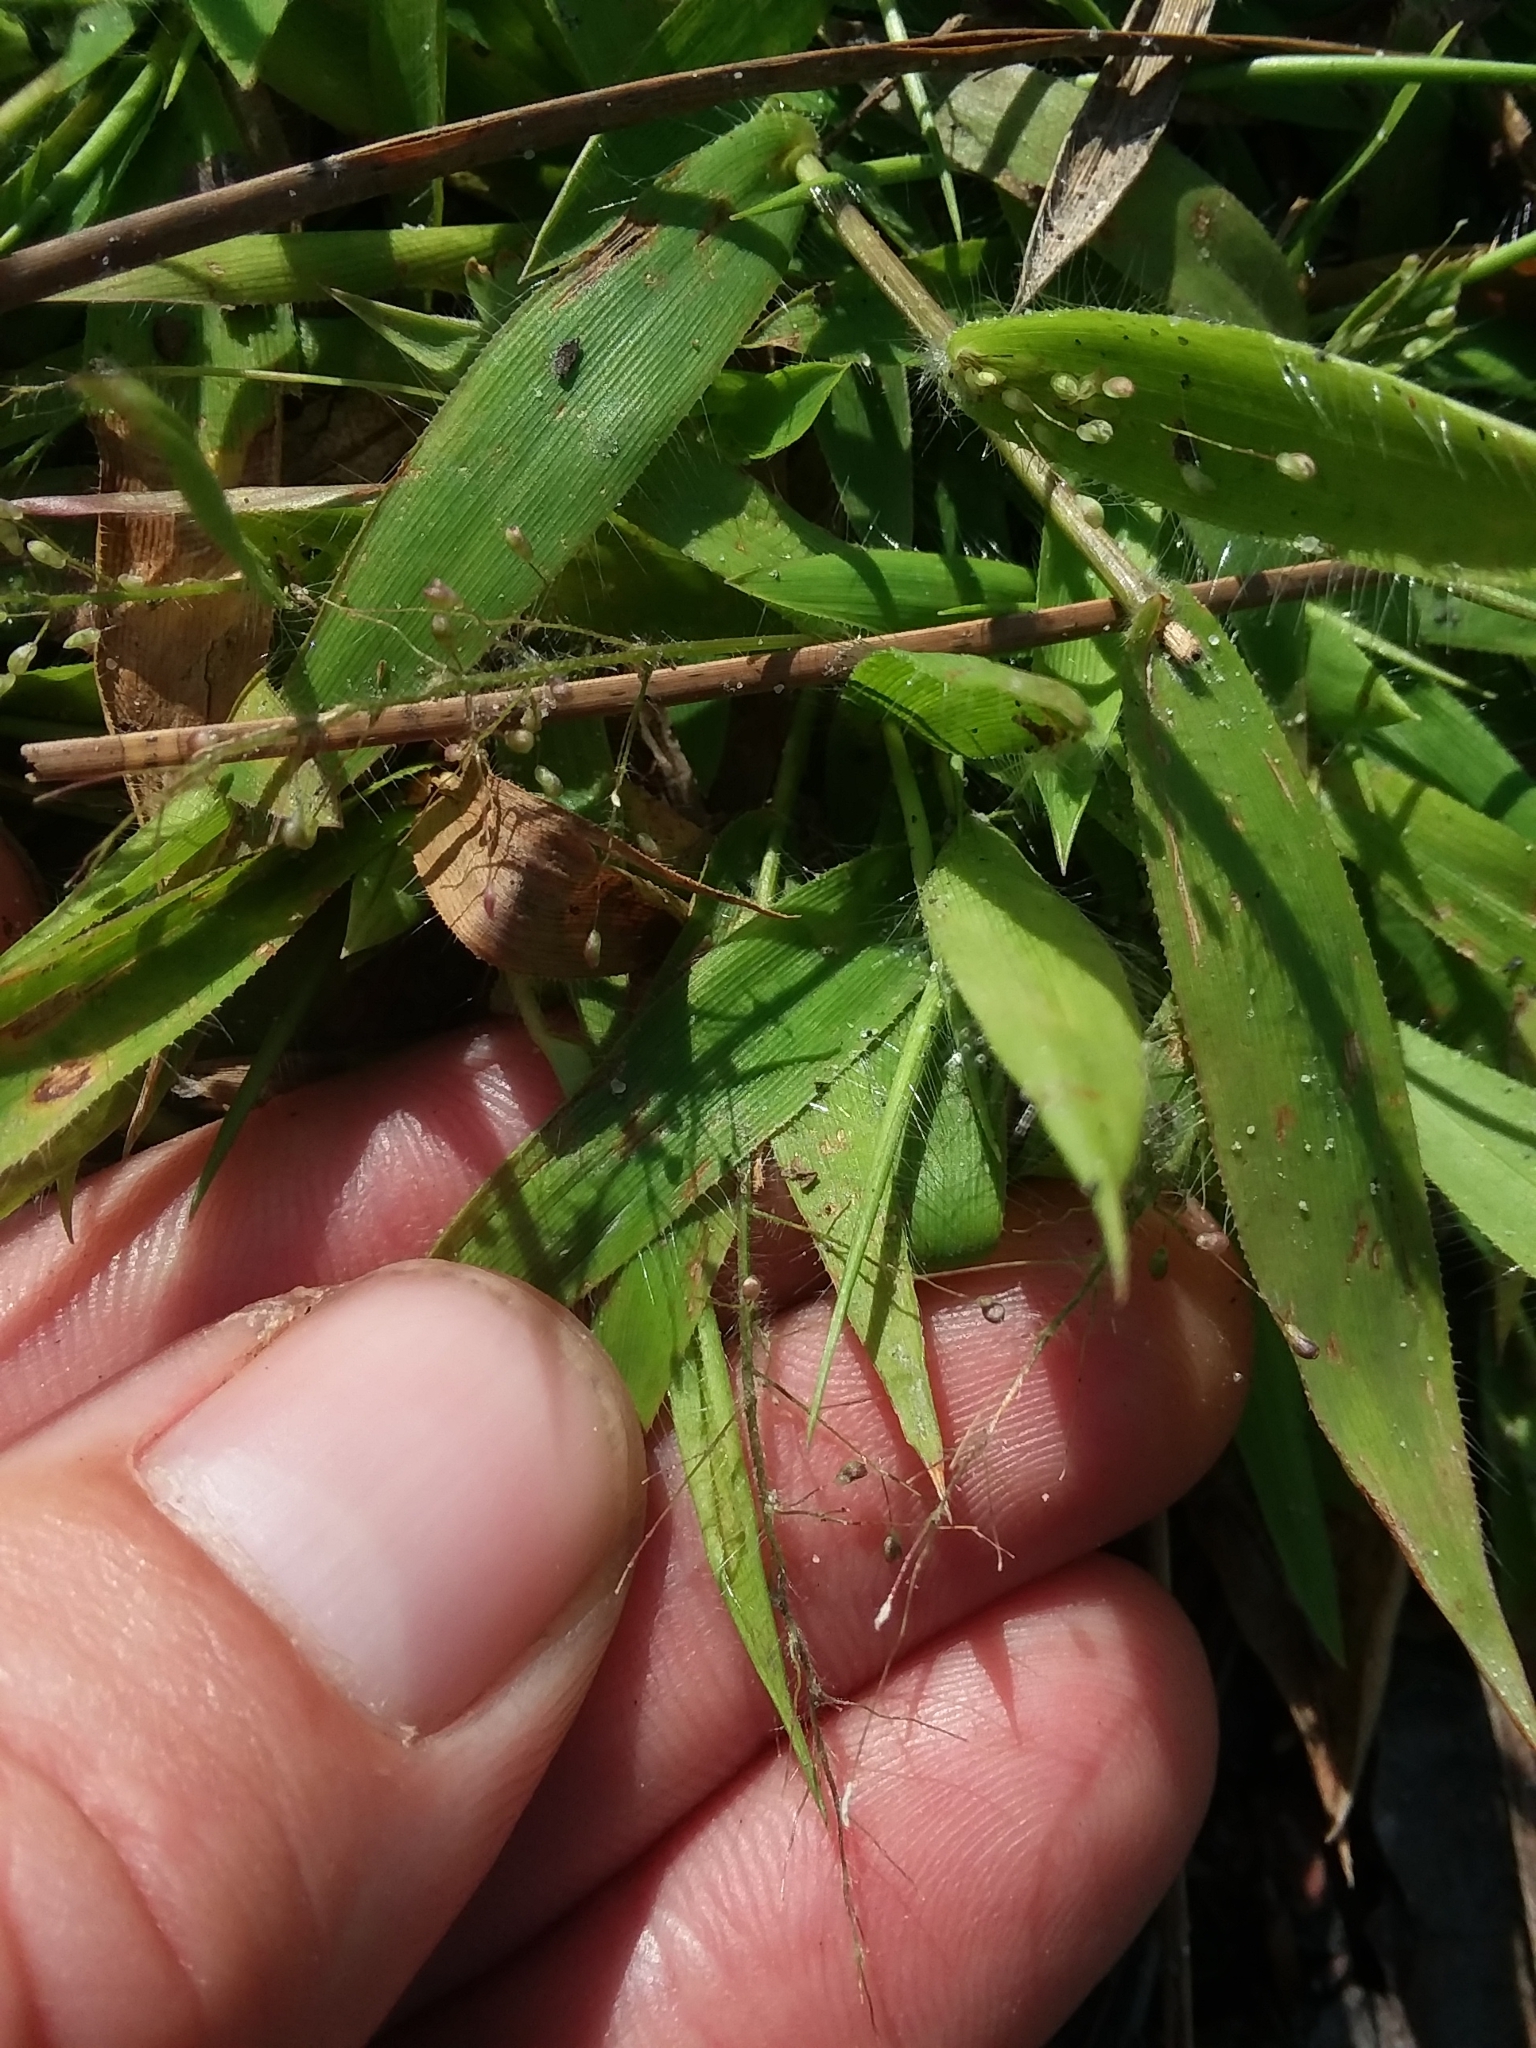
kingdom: Plantae
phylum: Tracheophyta
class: Liliopsida
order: Poales
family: Poaceae
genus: Dichanthelium
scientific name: Dichanthelium strigosum
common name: Cushion-tuft panic grass
